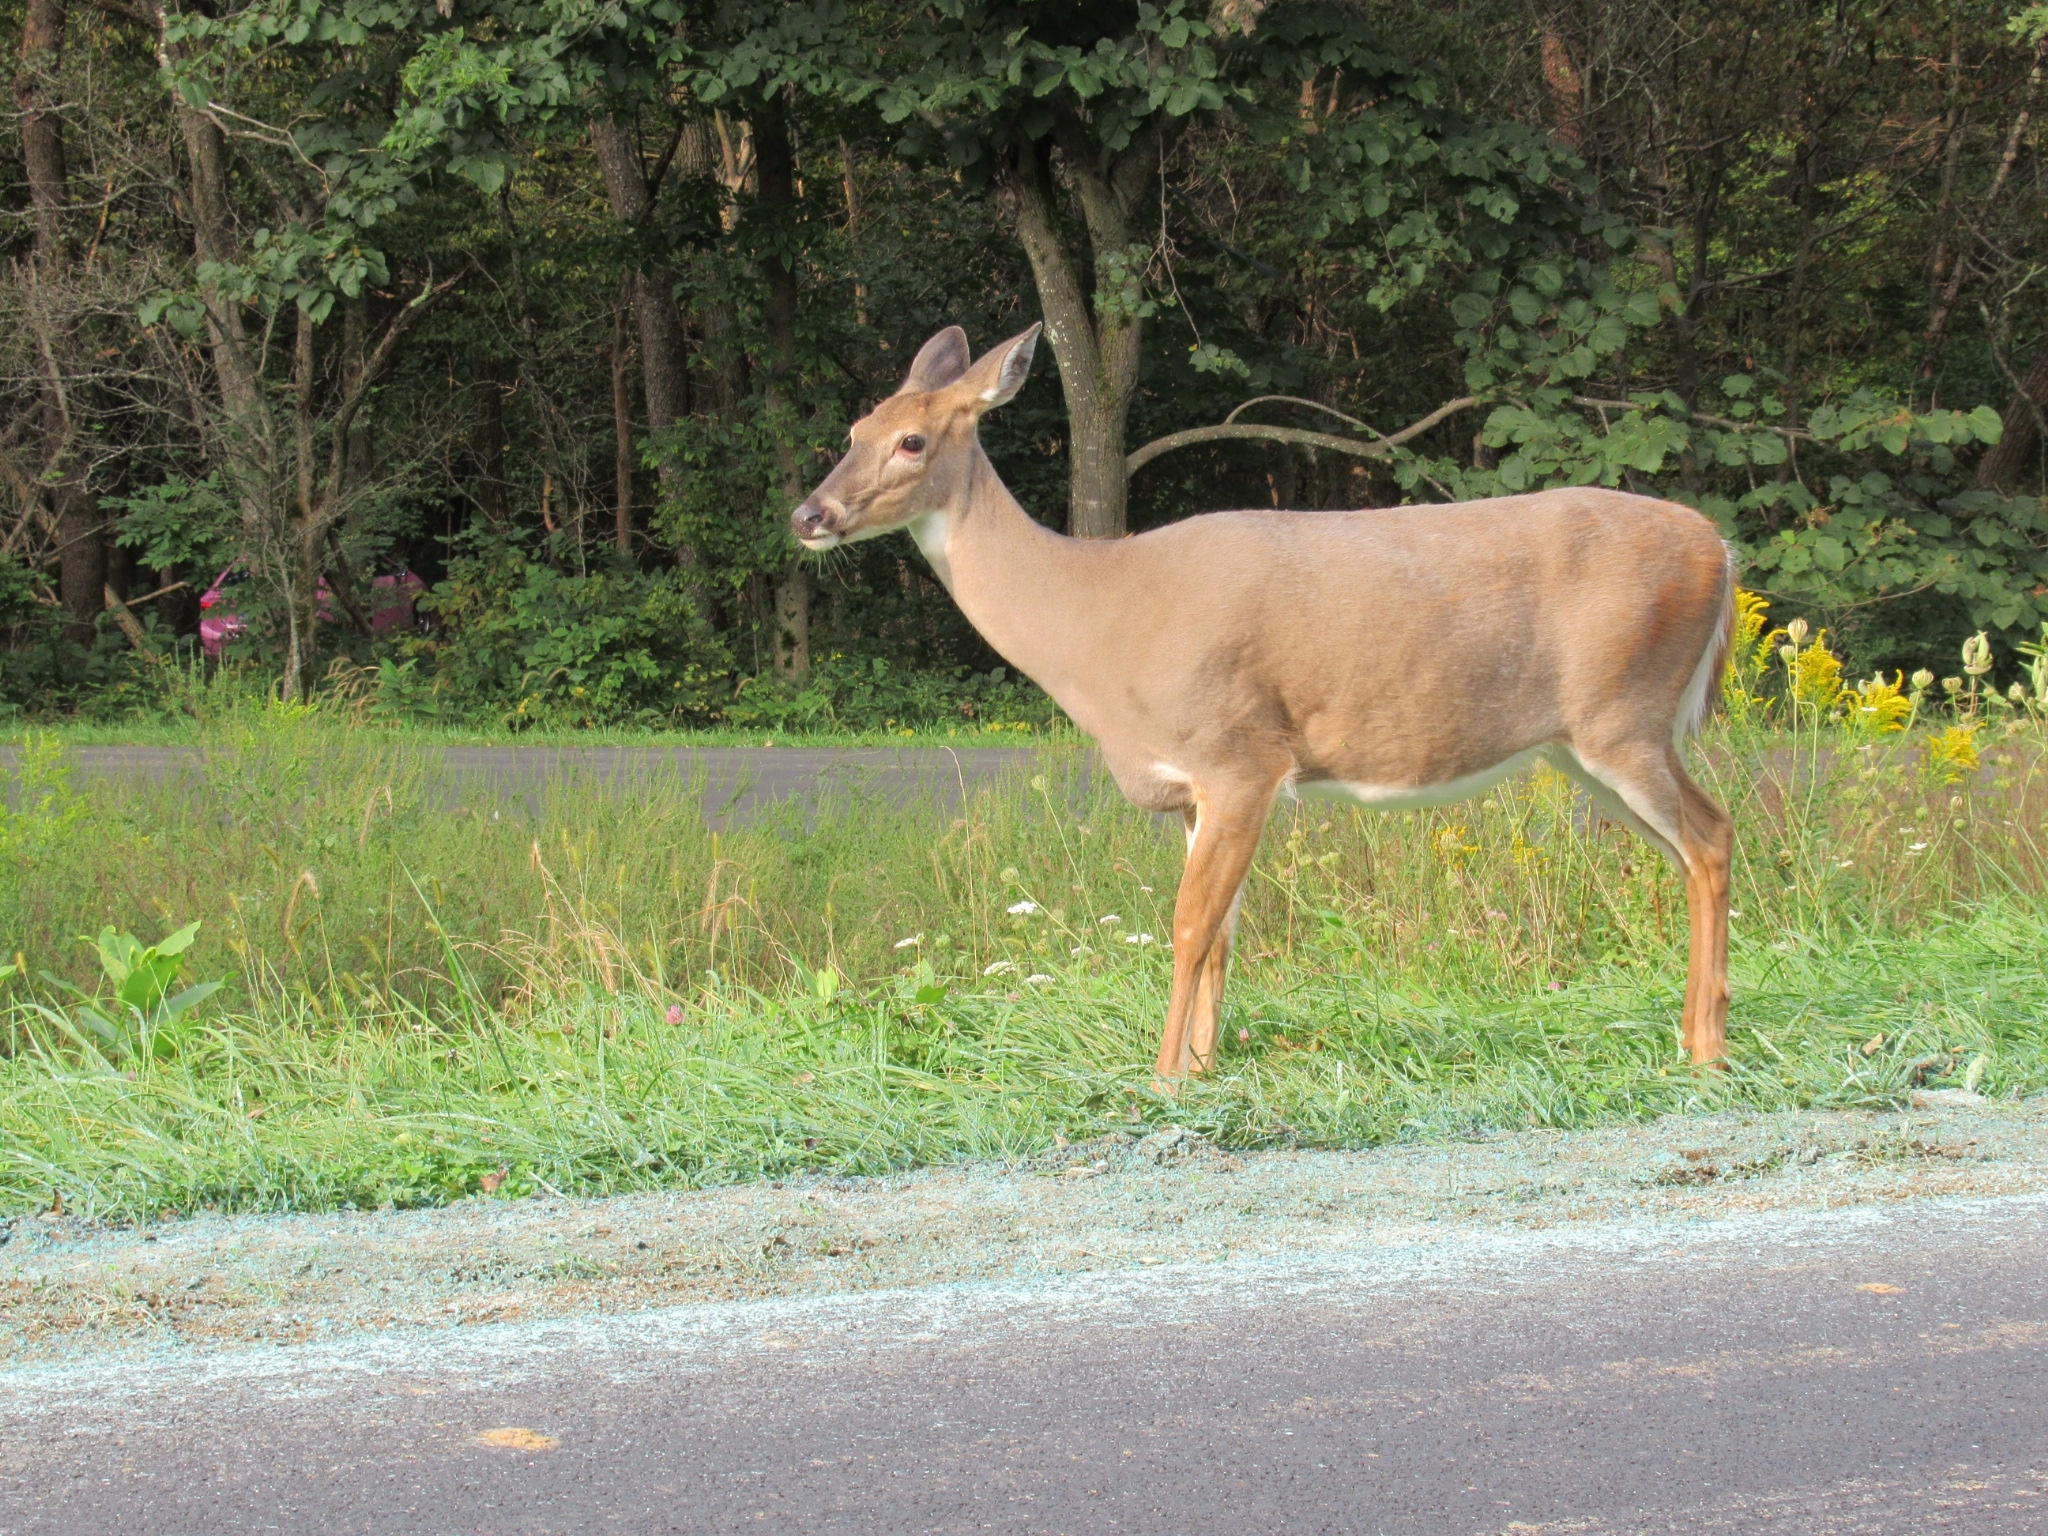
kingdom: Animalia
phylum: Chordata
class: Mammalia
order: Artiodactyla
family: Cervidae
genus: Odocoileus
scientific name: Odocoileus virginianus
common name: White-tailed deer
